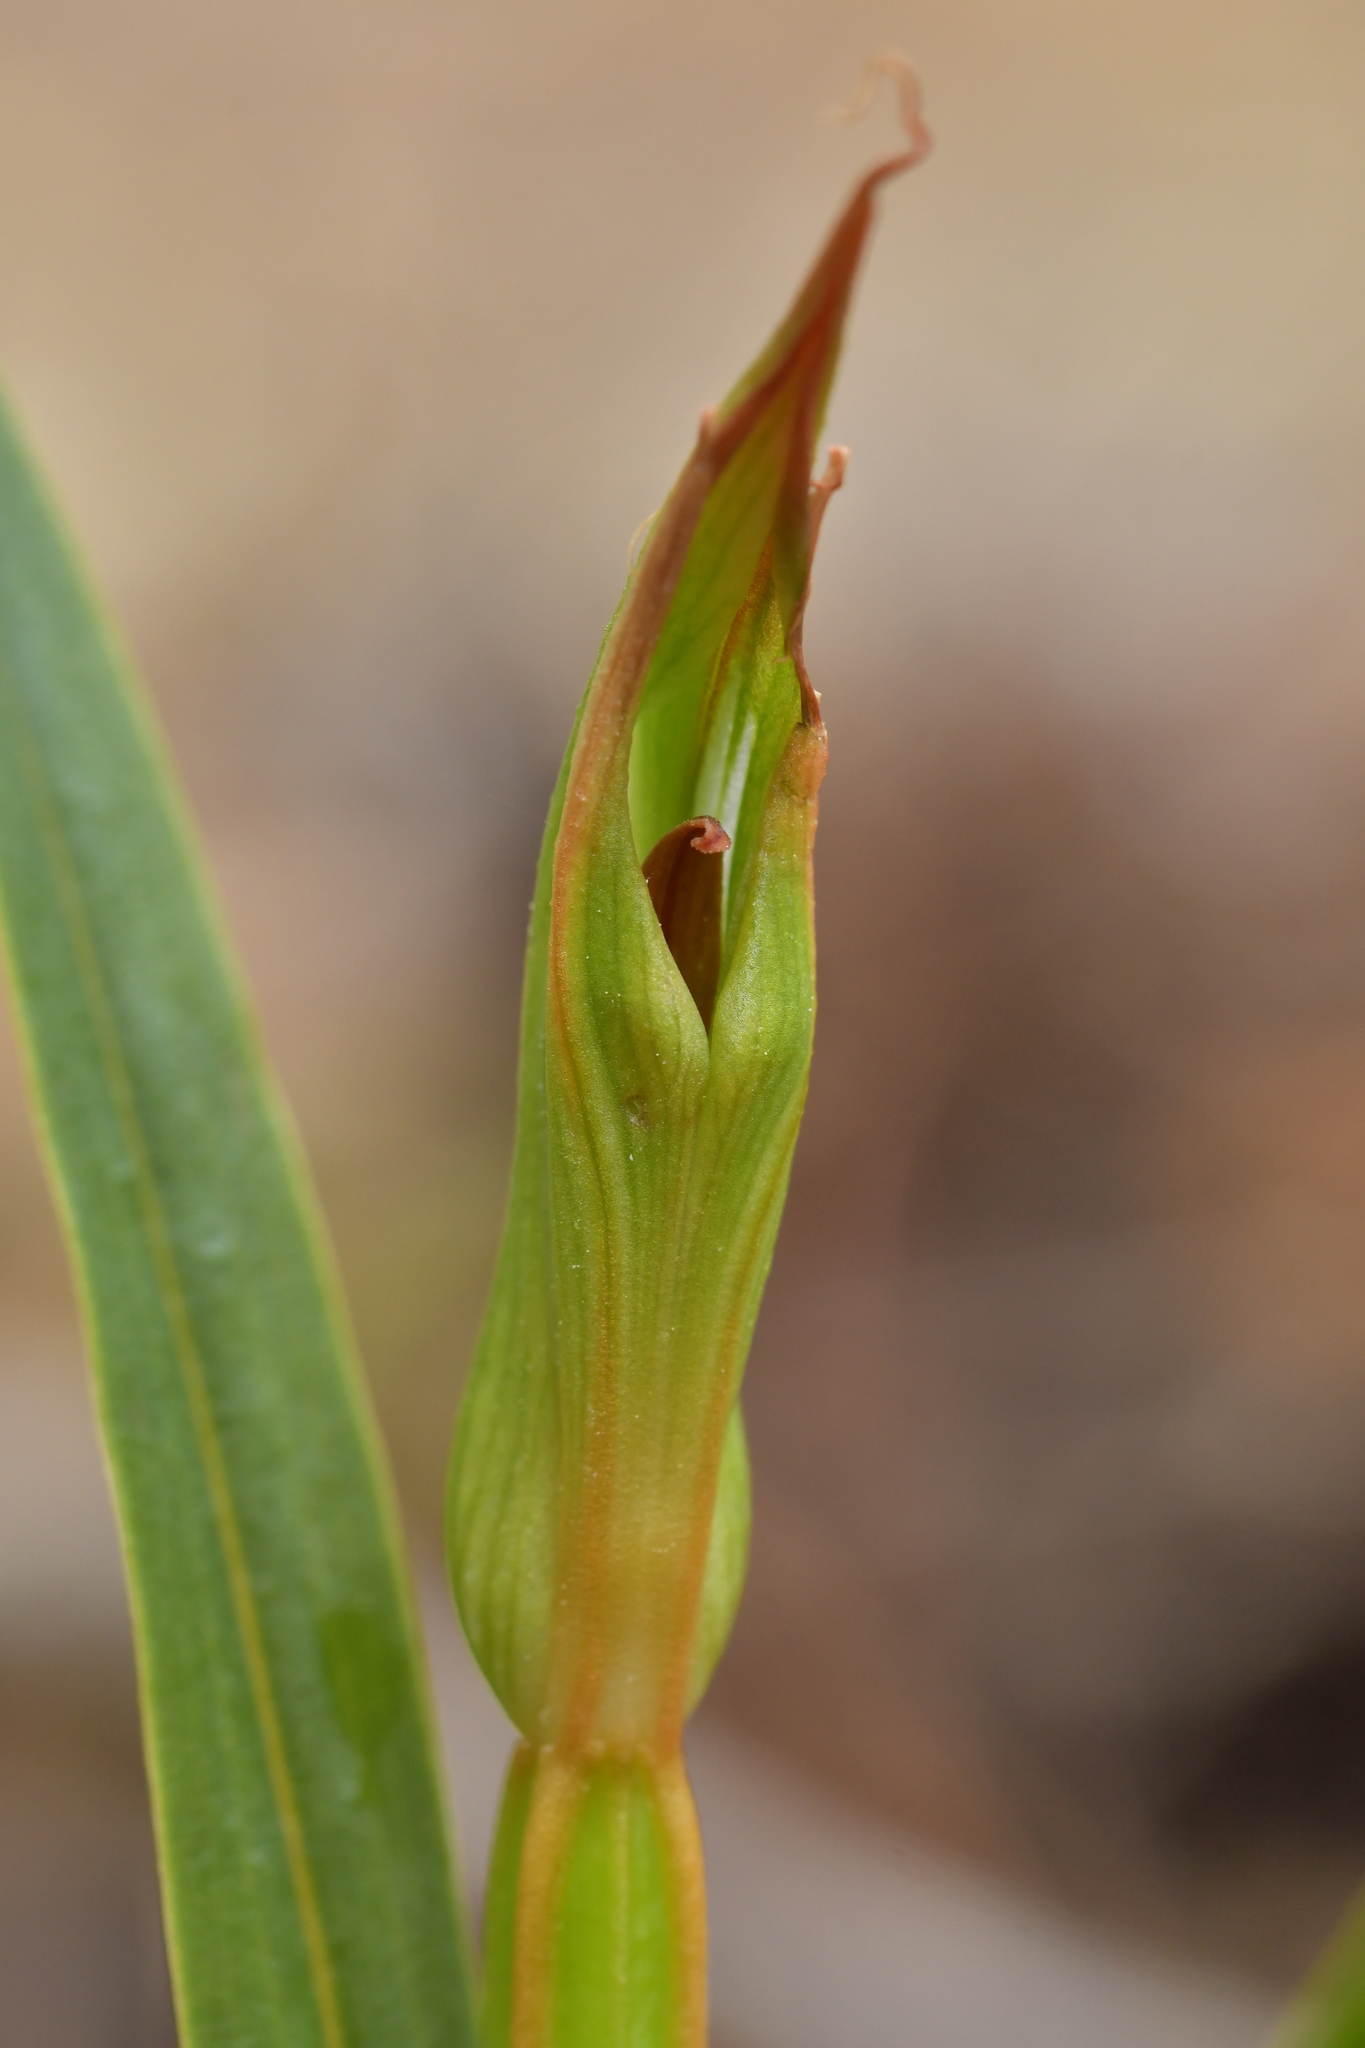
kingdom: Plantae
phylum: Tracheophyta
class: Liliopsida
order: Asparagales
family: Orchidaceae
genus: Pterostylis
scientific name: Pterostylis cardiostigma
